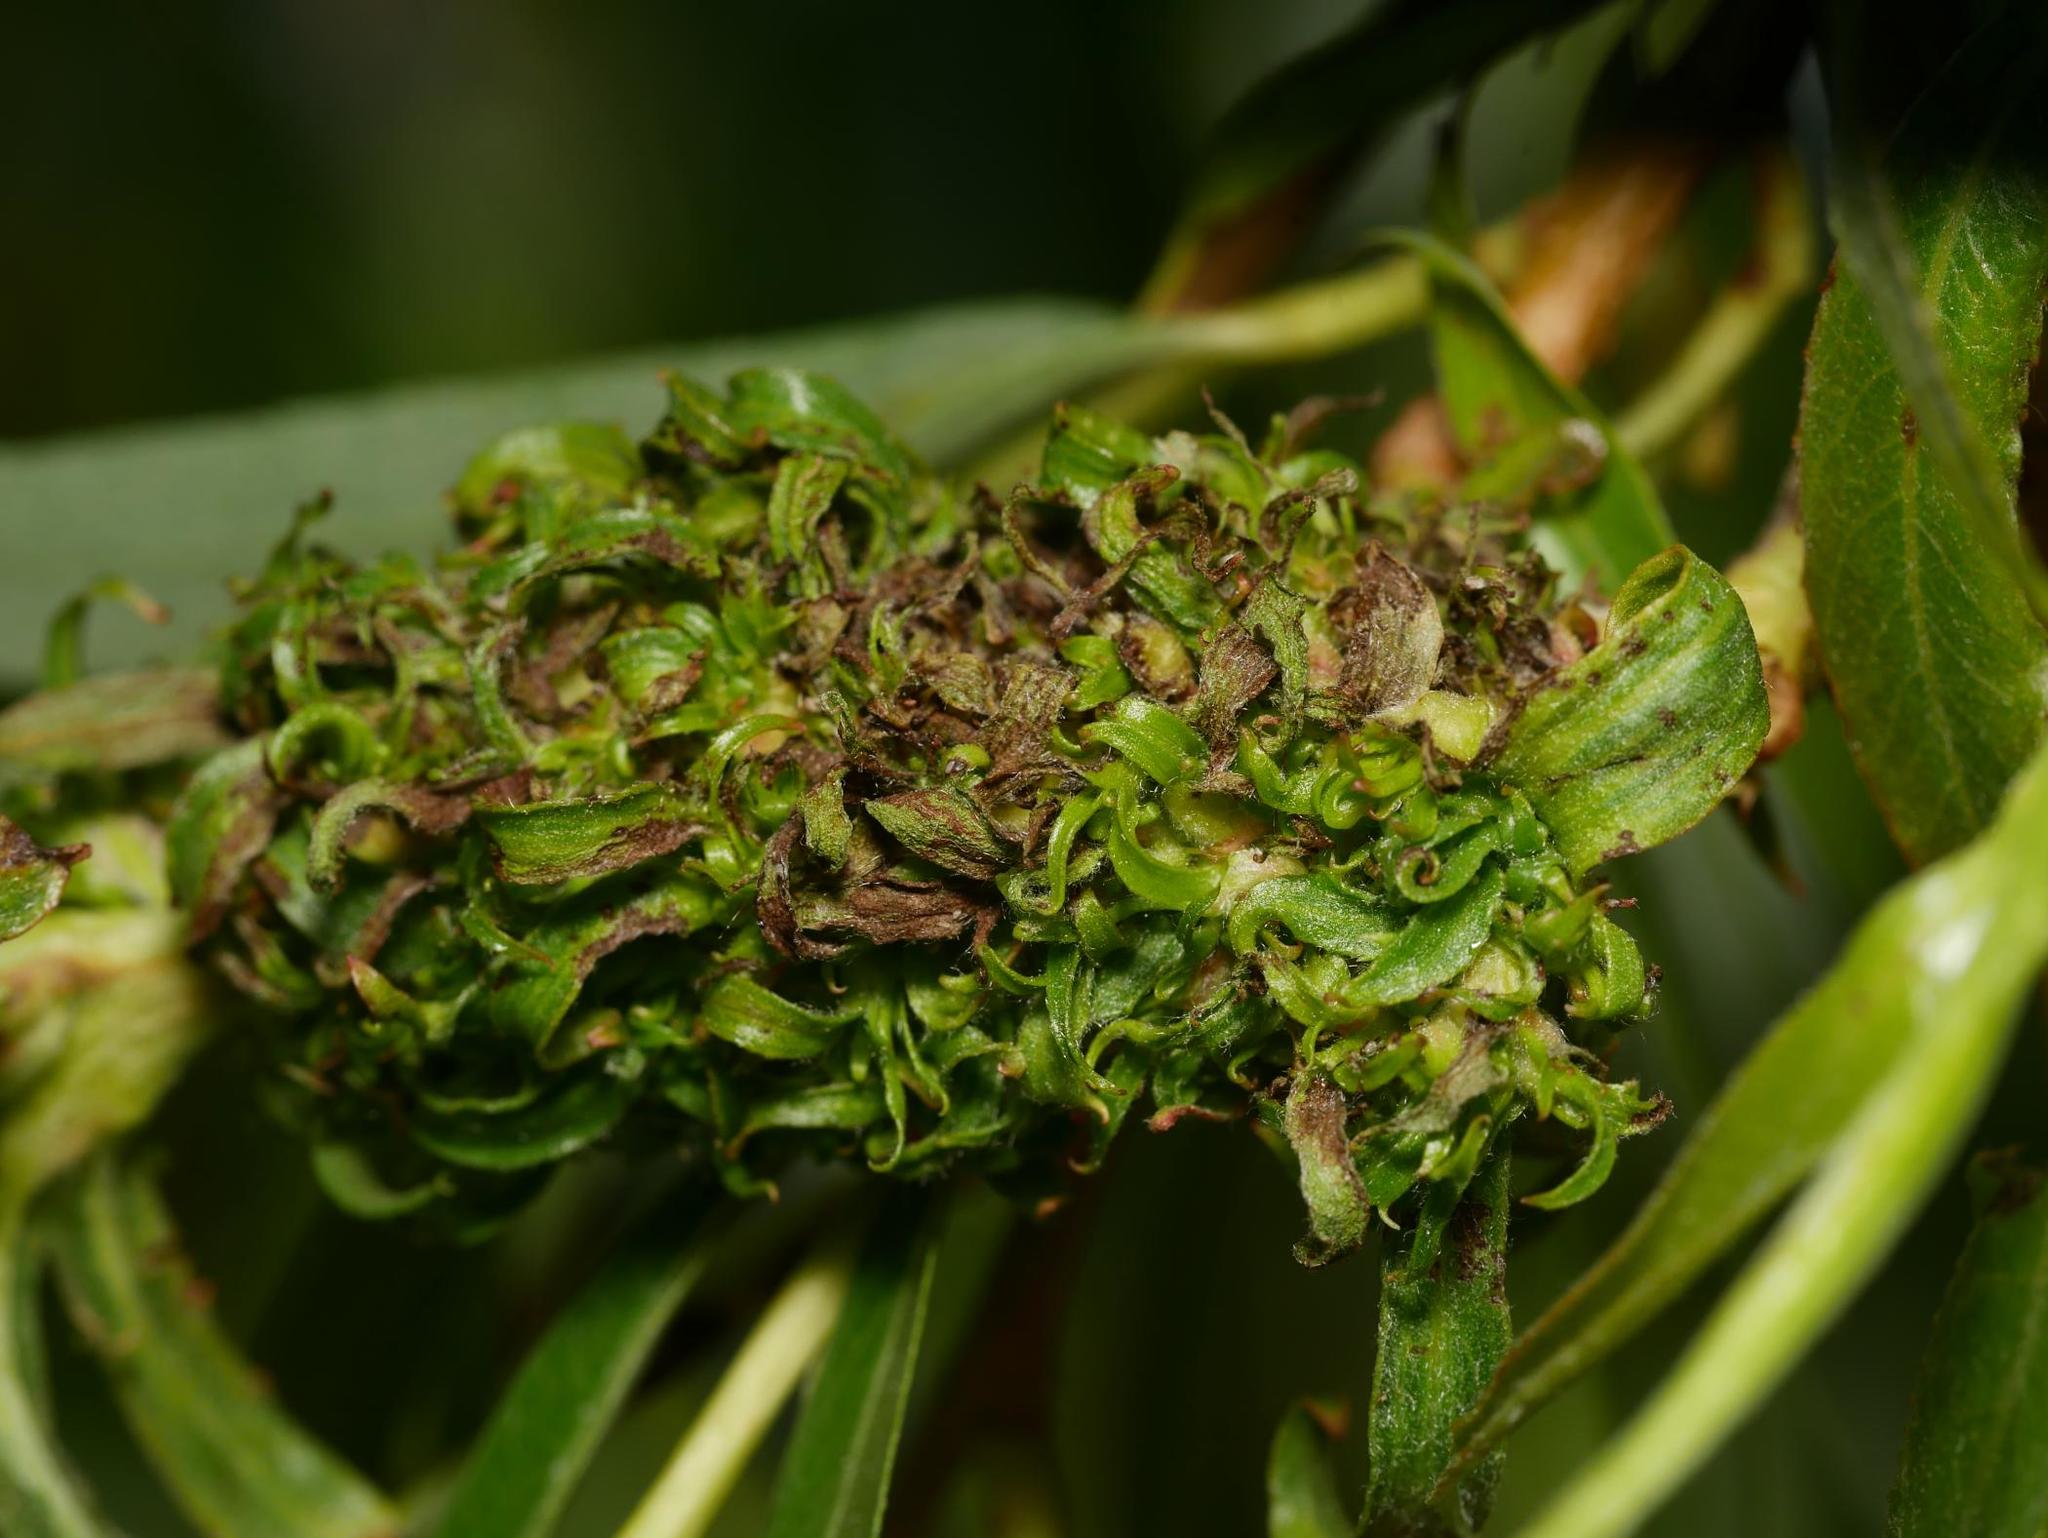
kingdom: Animalia
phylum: Arthropoda
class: Arachnida
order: Trombidiformes
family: Eriophyidae
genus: Stenacis
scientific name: Stenacis triradiatus
